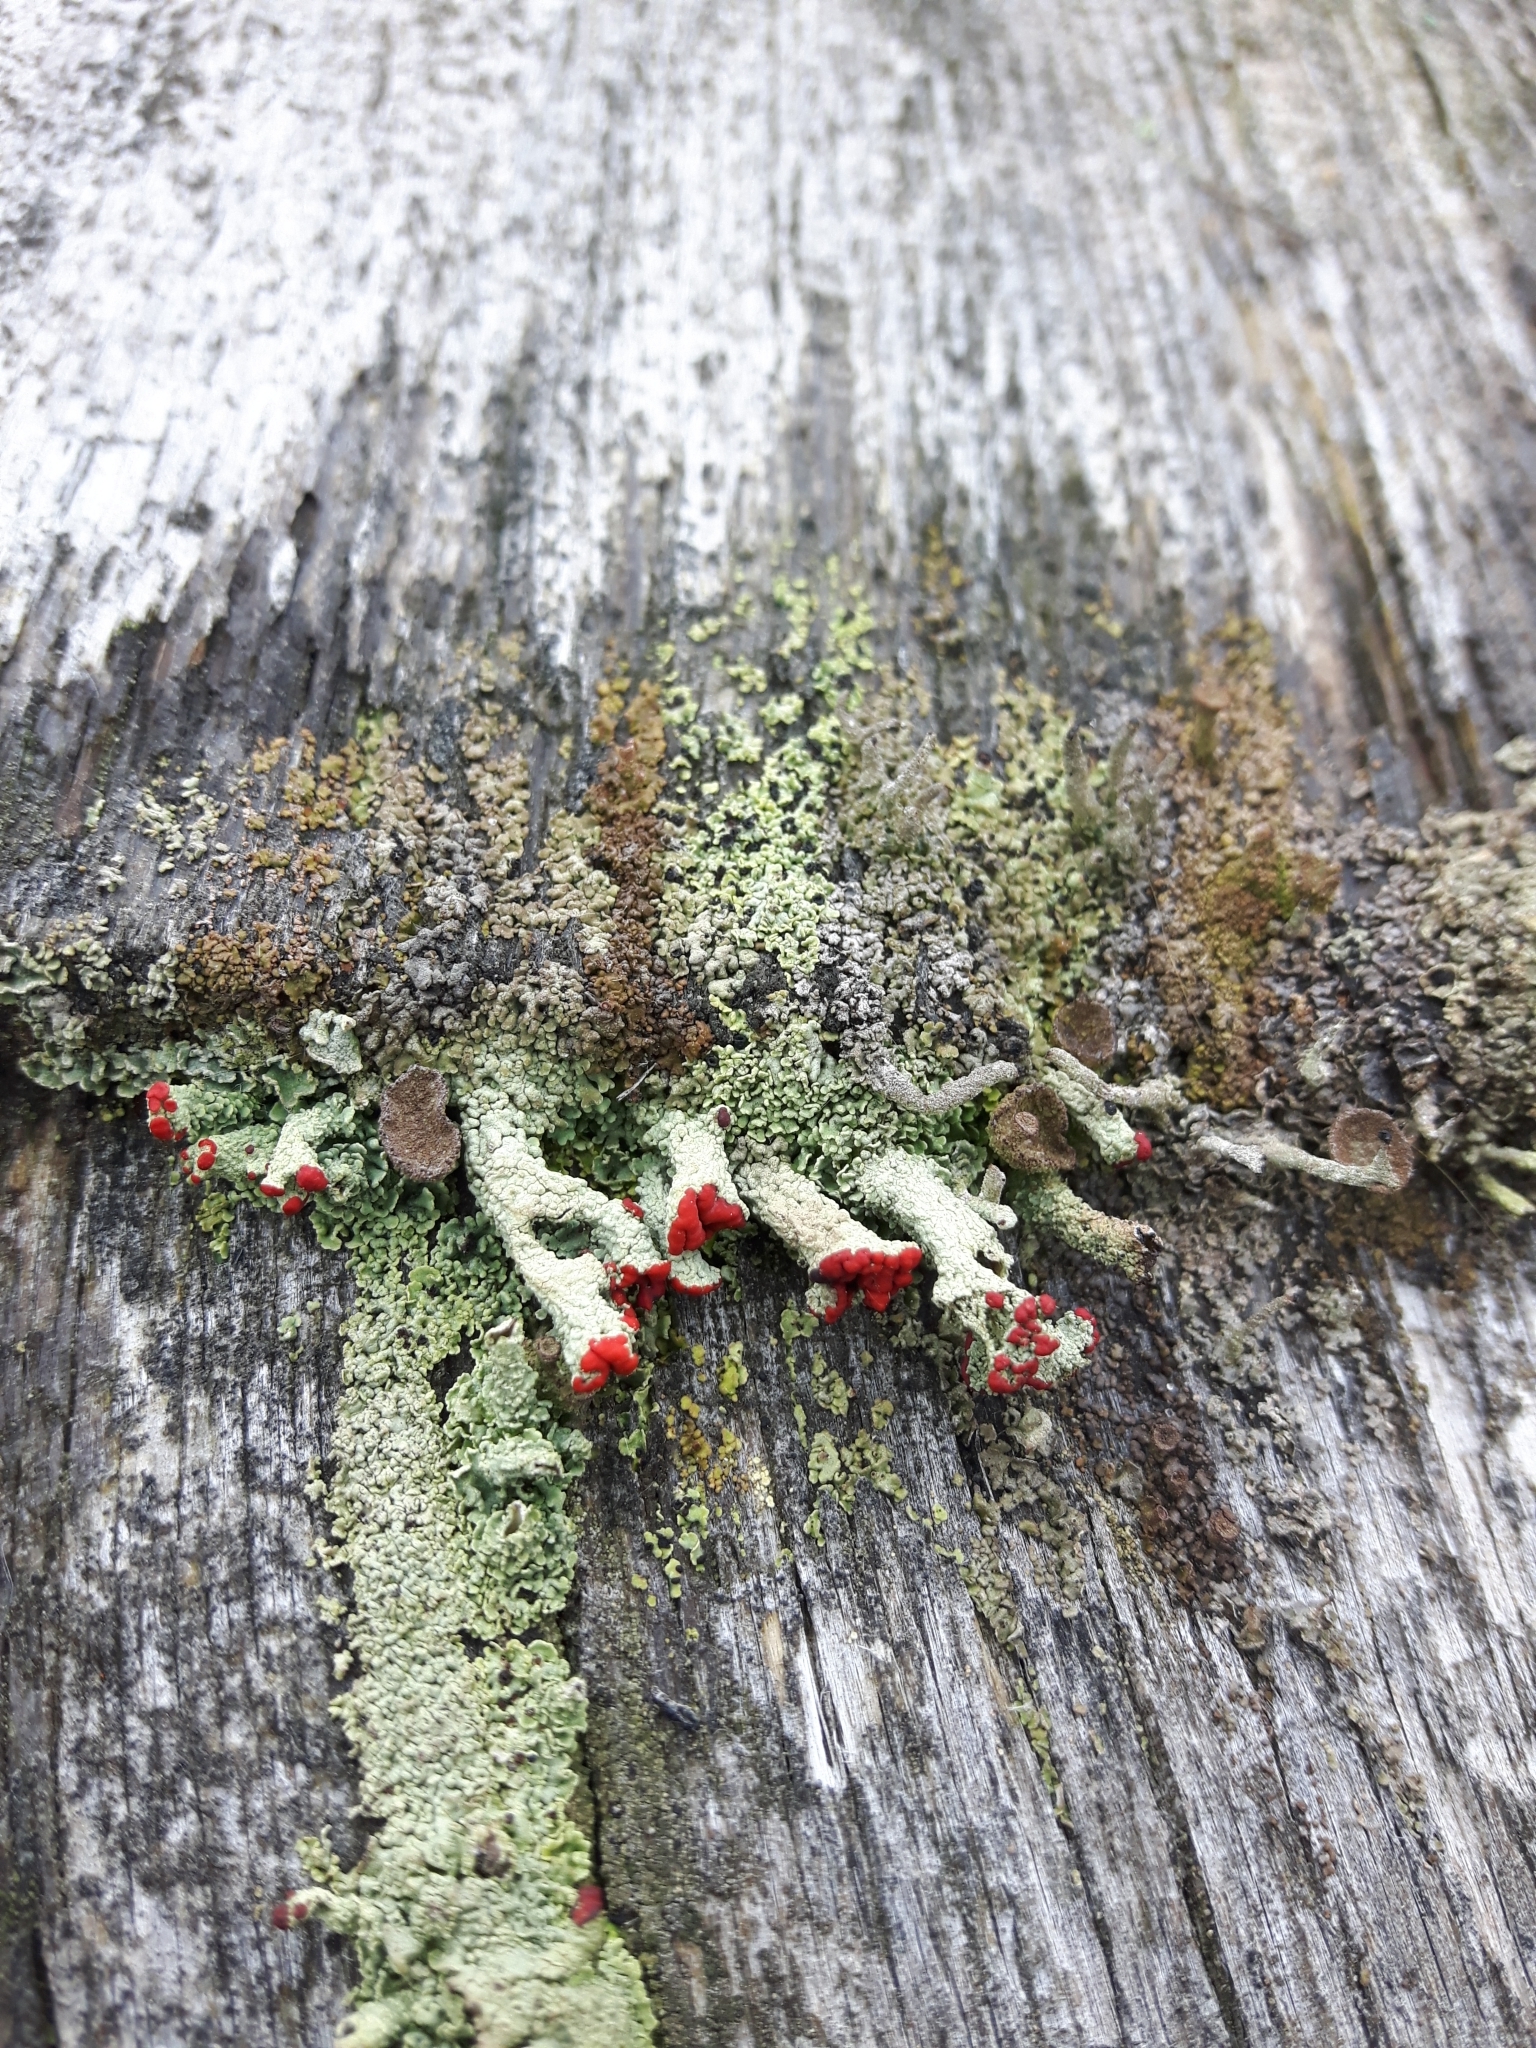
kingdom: Fungi
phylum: Ascomycota
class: Lecanoromycetes
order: Lecanorales
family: Cladoniaceae
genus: Cladonia
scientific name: Cladonia cristatella
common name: British soldier lichen
